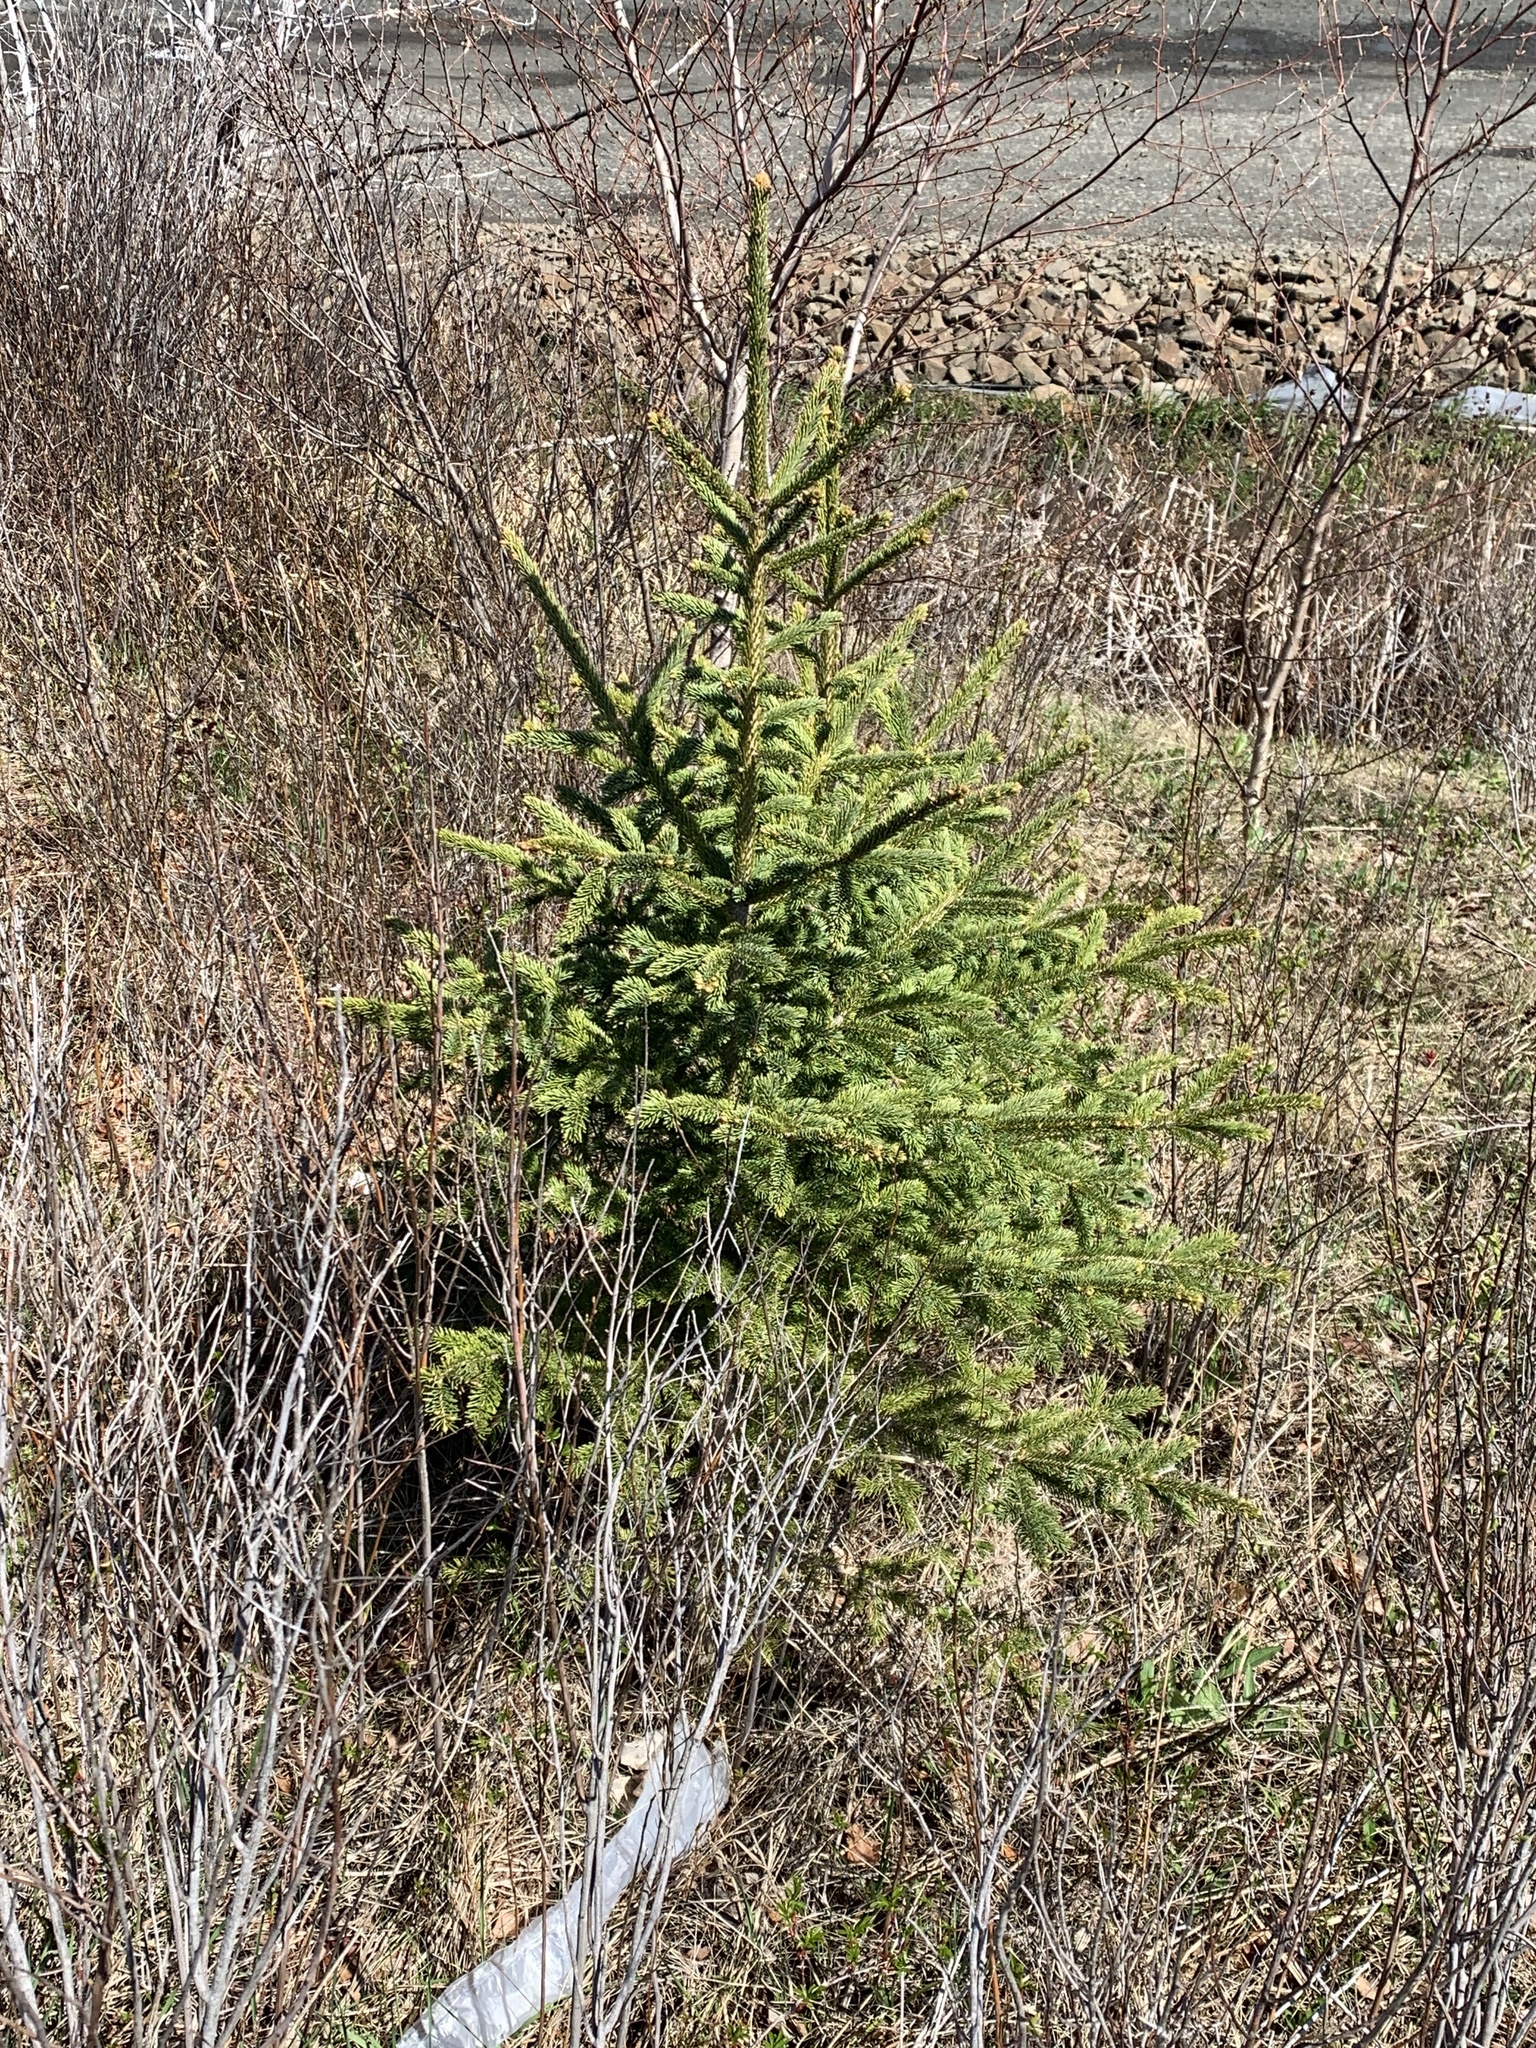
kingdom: Plantae
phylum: Tracheophyta
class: Pinopsida
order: Pinales
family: Pinaceae
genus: Picea
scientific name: Picea glauca
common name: White spruce
